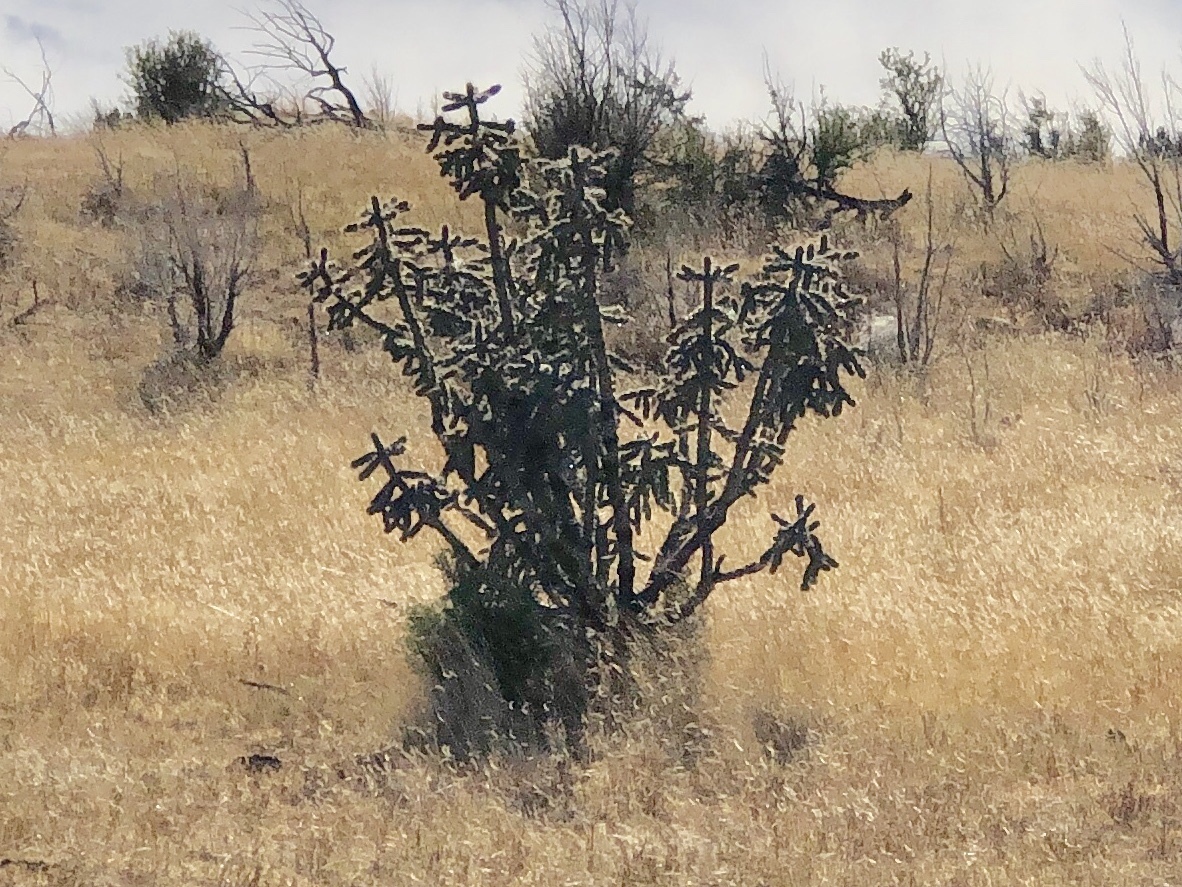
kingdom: Plantae
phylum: Tracheophyta
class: Magnoliopsida
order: Caryophyllales
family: Cactaceae
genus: Cylindropuntia
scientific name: Cylindropuntia imbricata
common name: Candelabrum cactus
